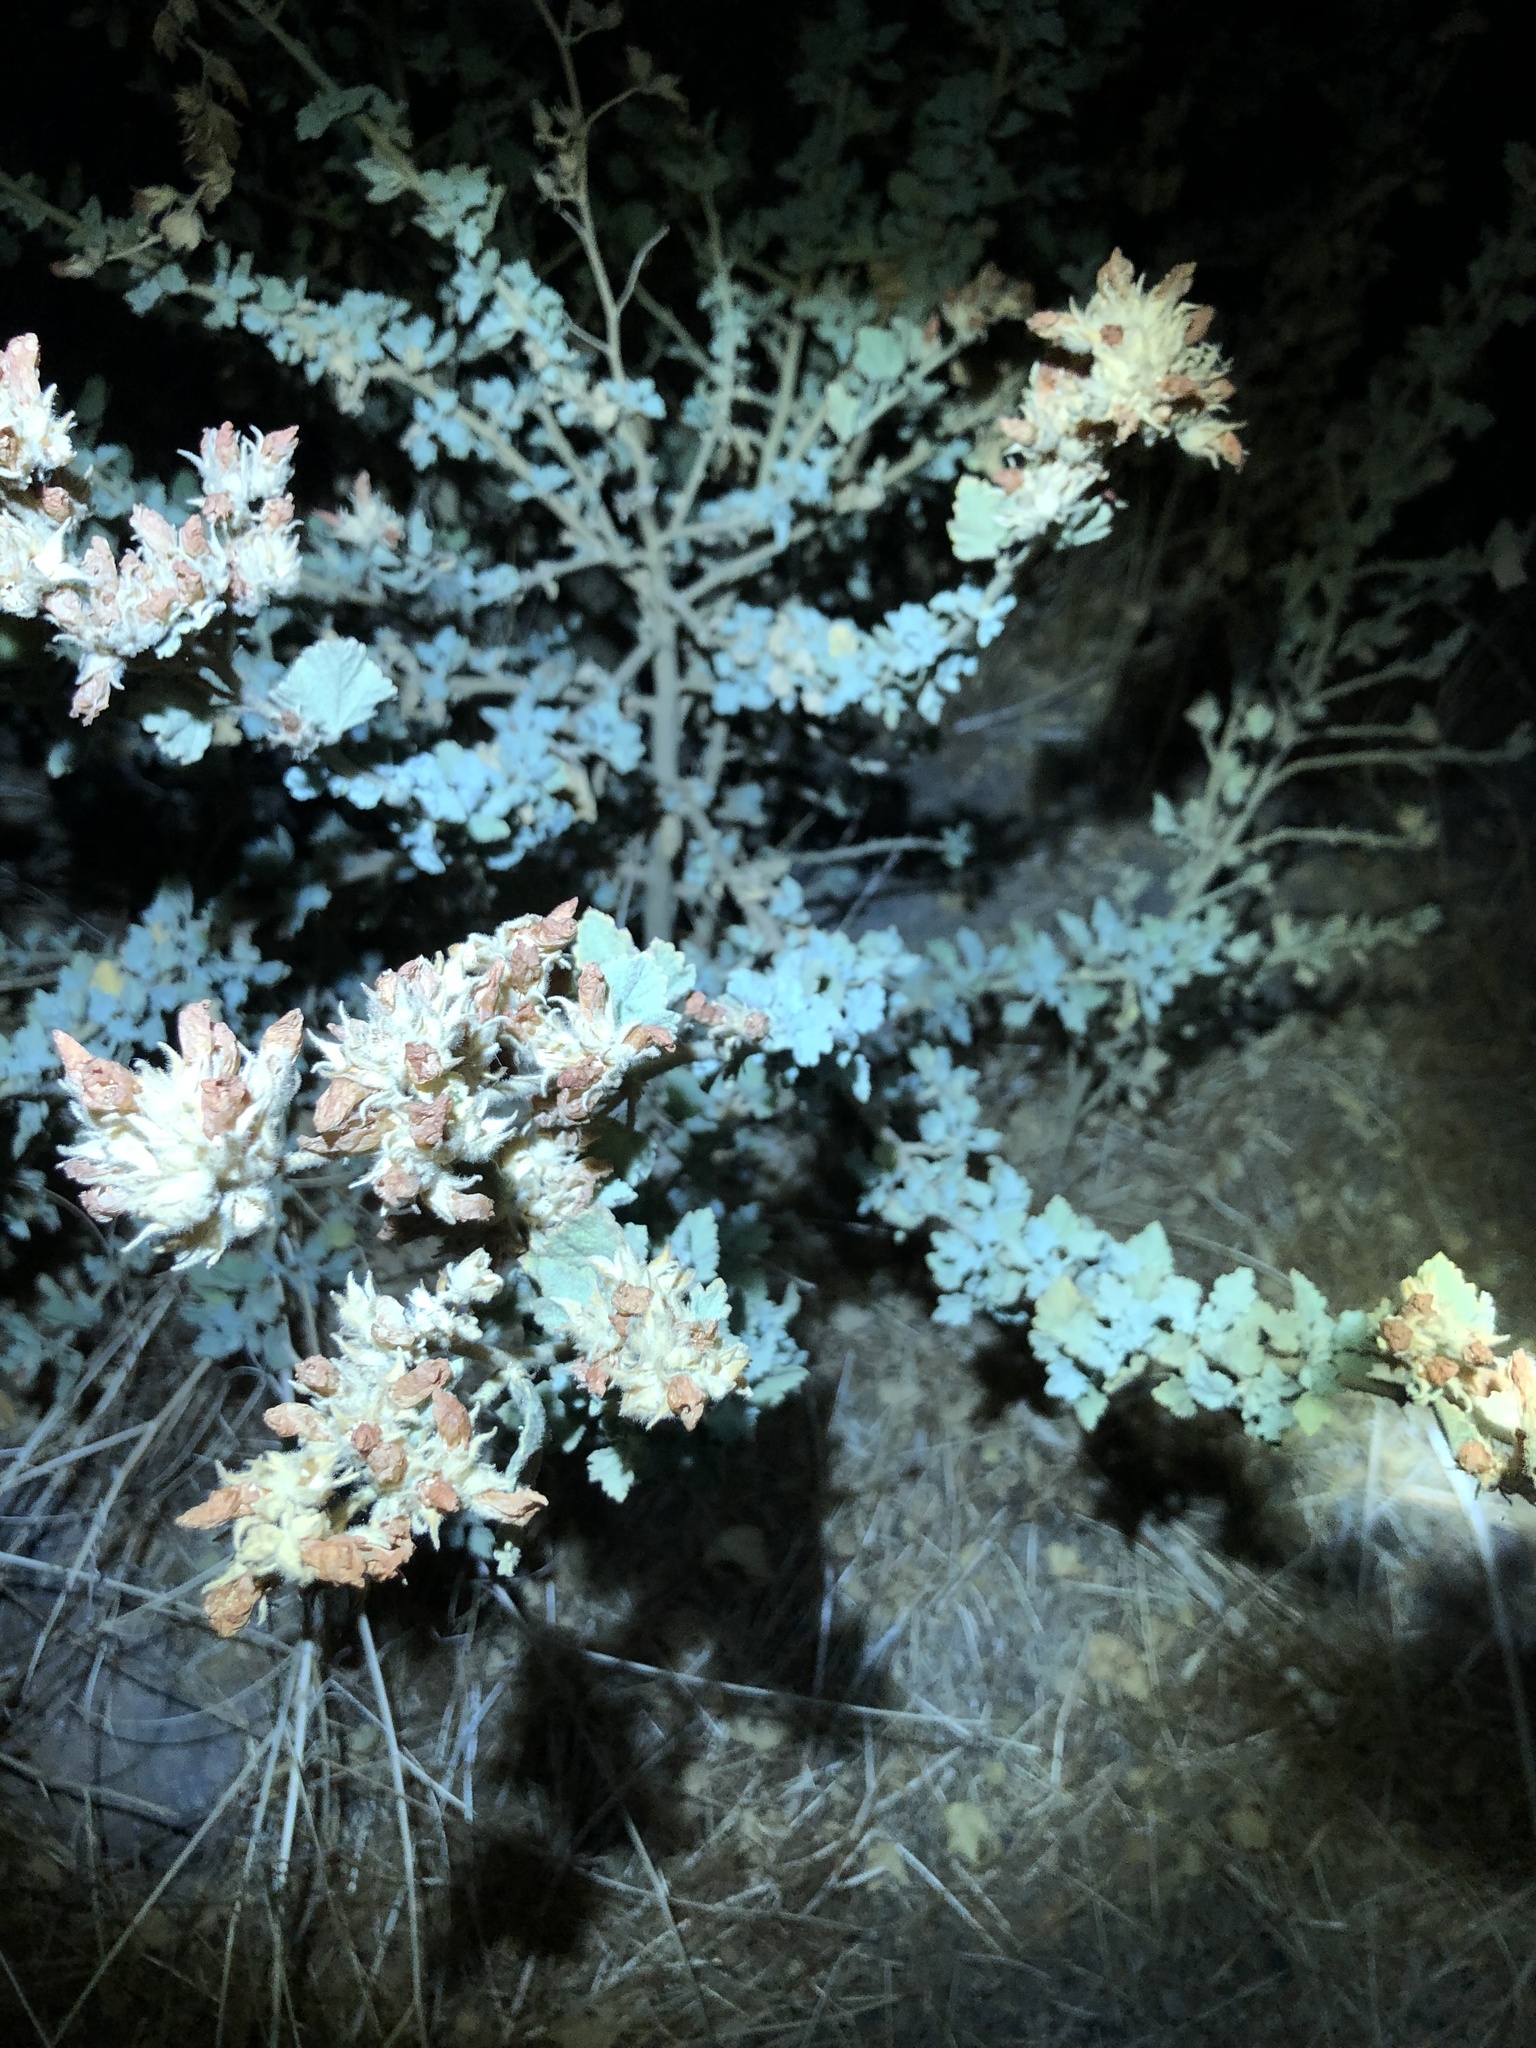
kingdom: Plantae
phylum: Tracheophyta
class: Magnoliopsida
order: Malvales
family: Malvaceae
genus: Malacothamnus
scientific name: Malacothamnus marrubioides
